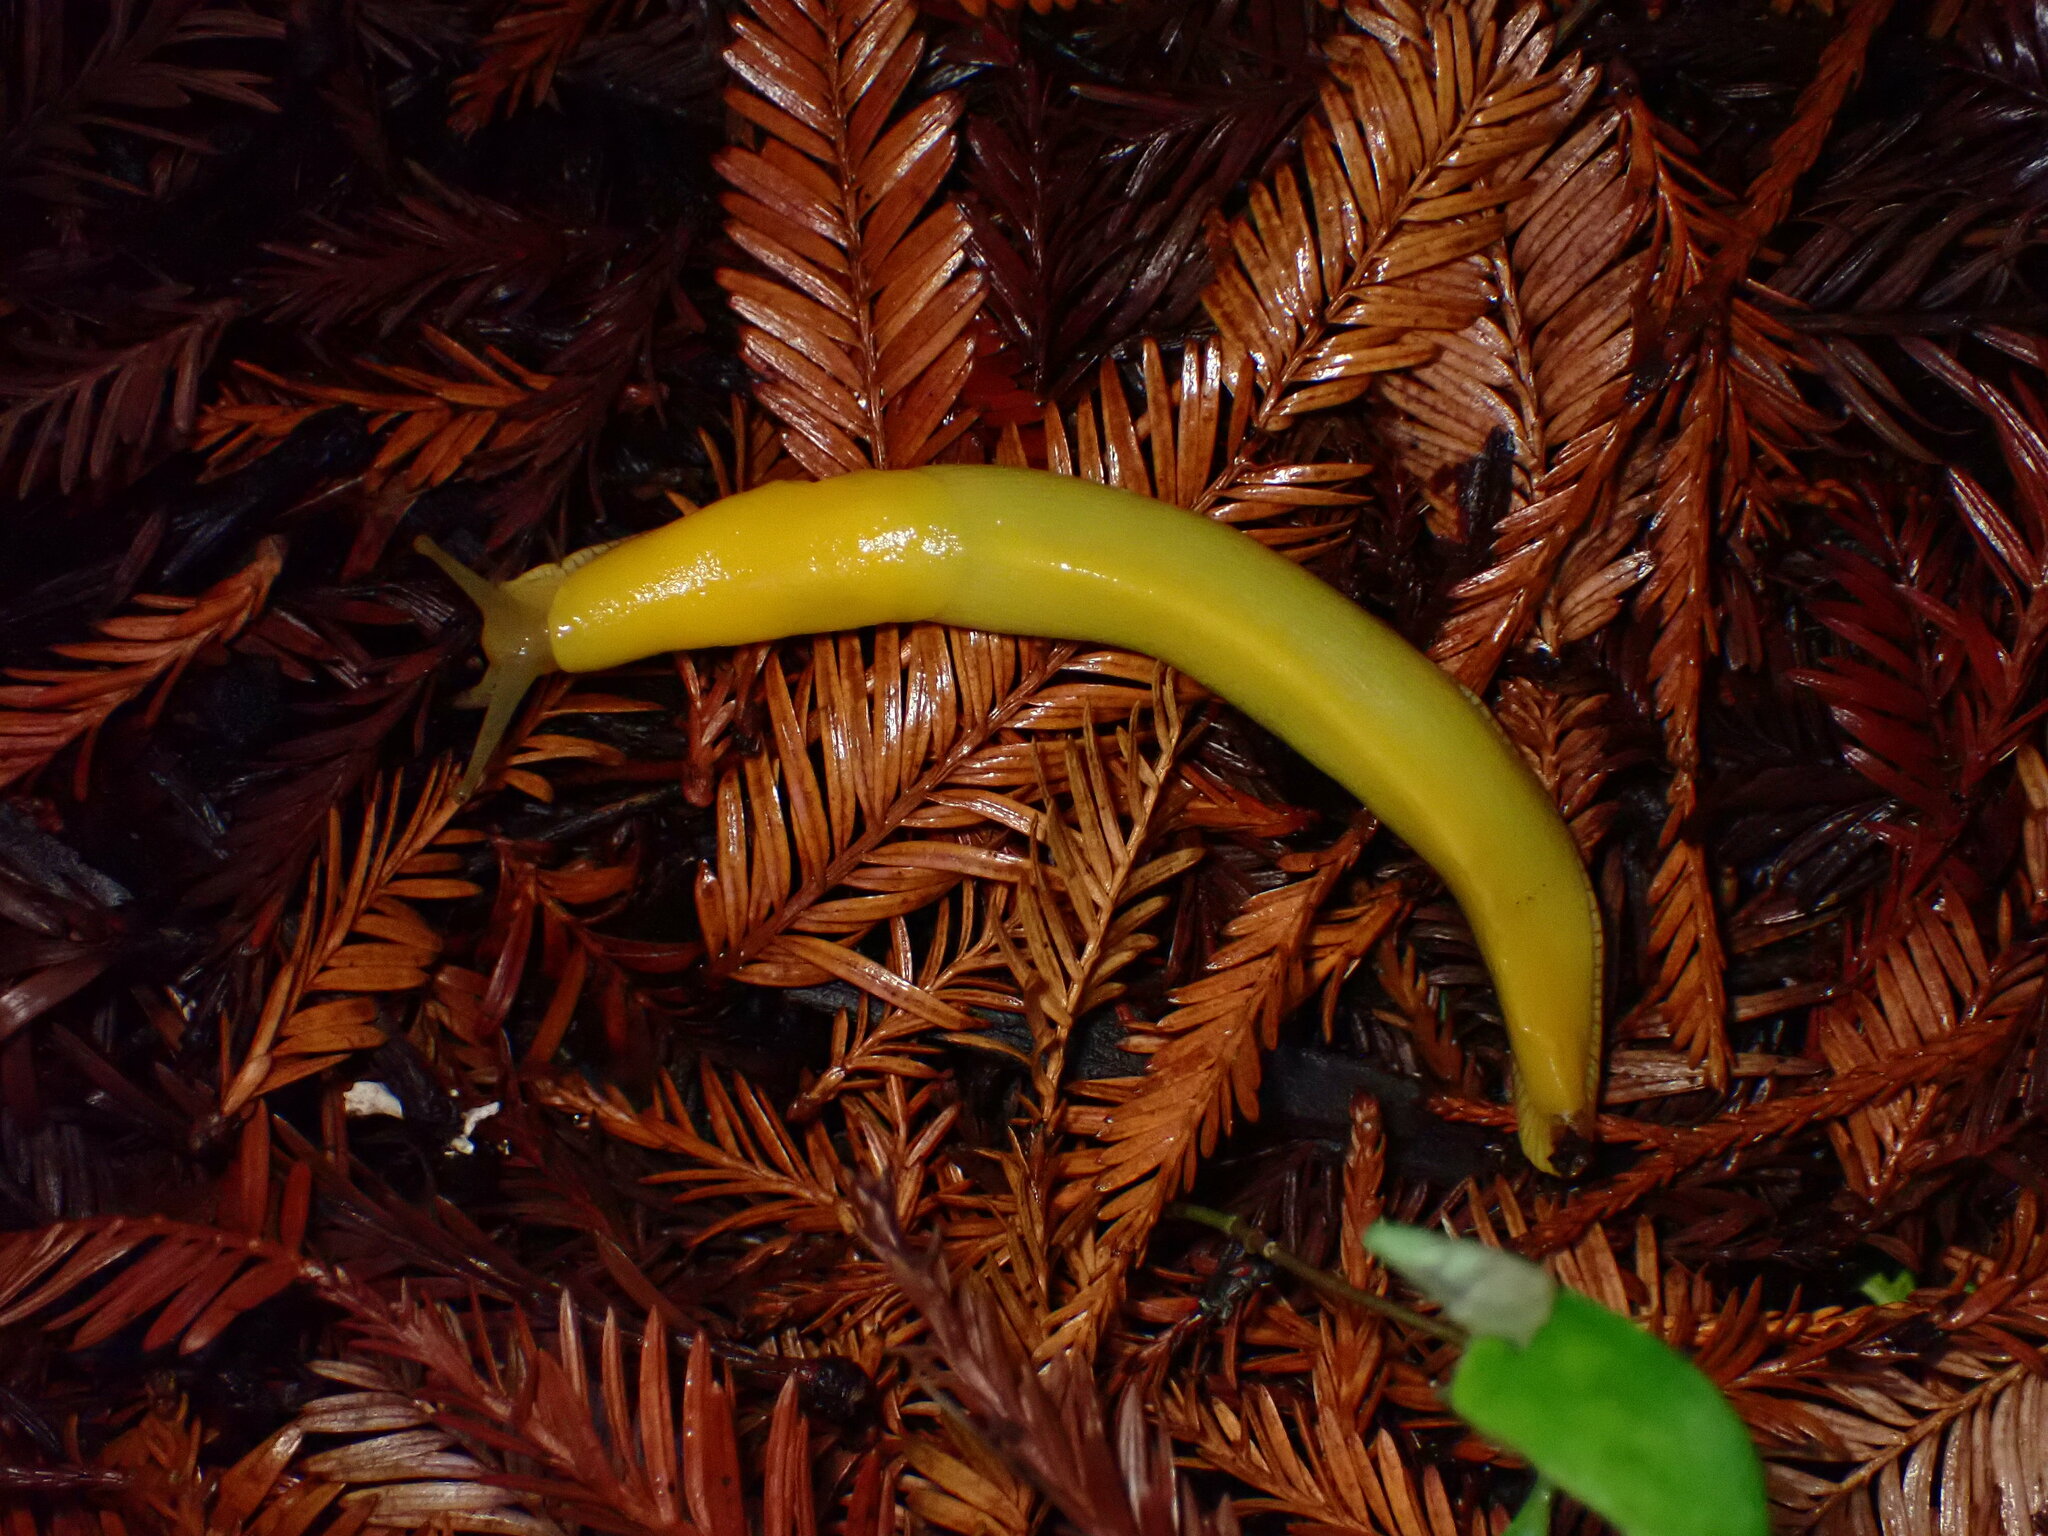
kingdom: Animalia
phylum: Mollusca
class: Gastropoda
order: Stylommatophora
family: Ariolimacidae
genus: Ariolimax
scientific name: Ariolimax californicus
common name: California banana slug
